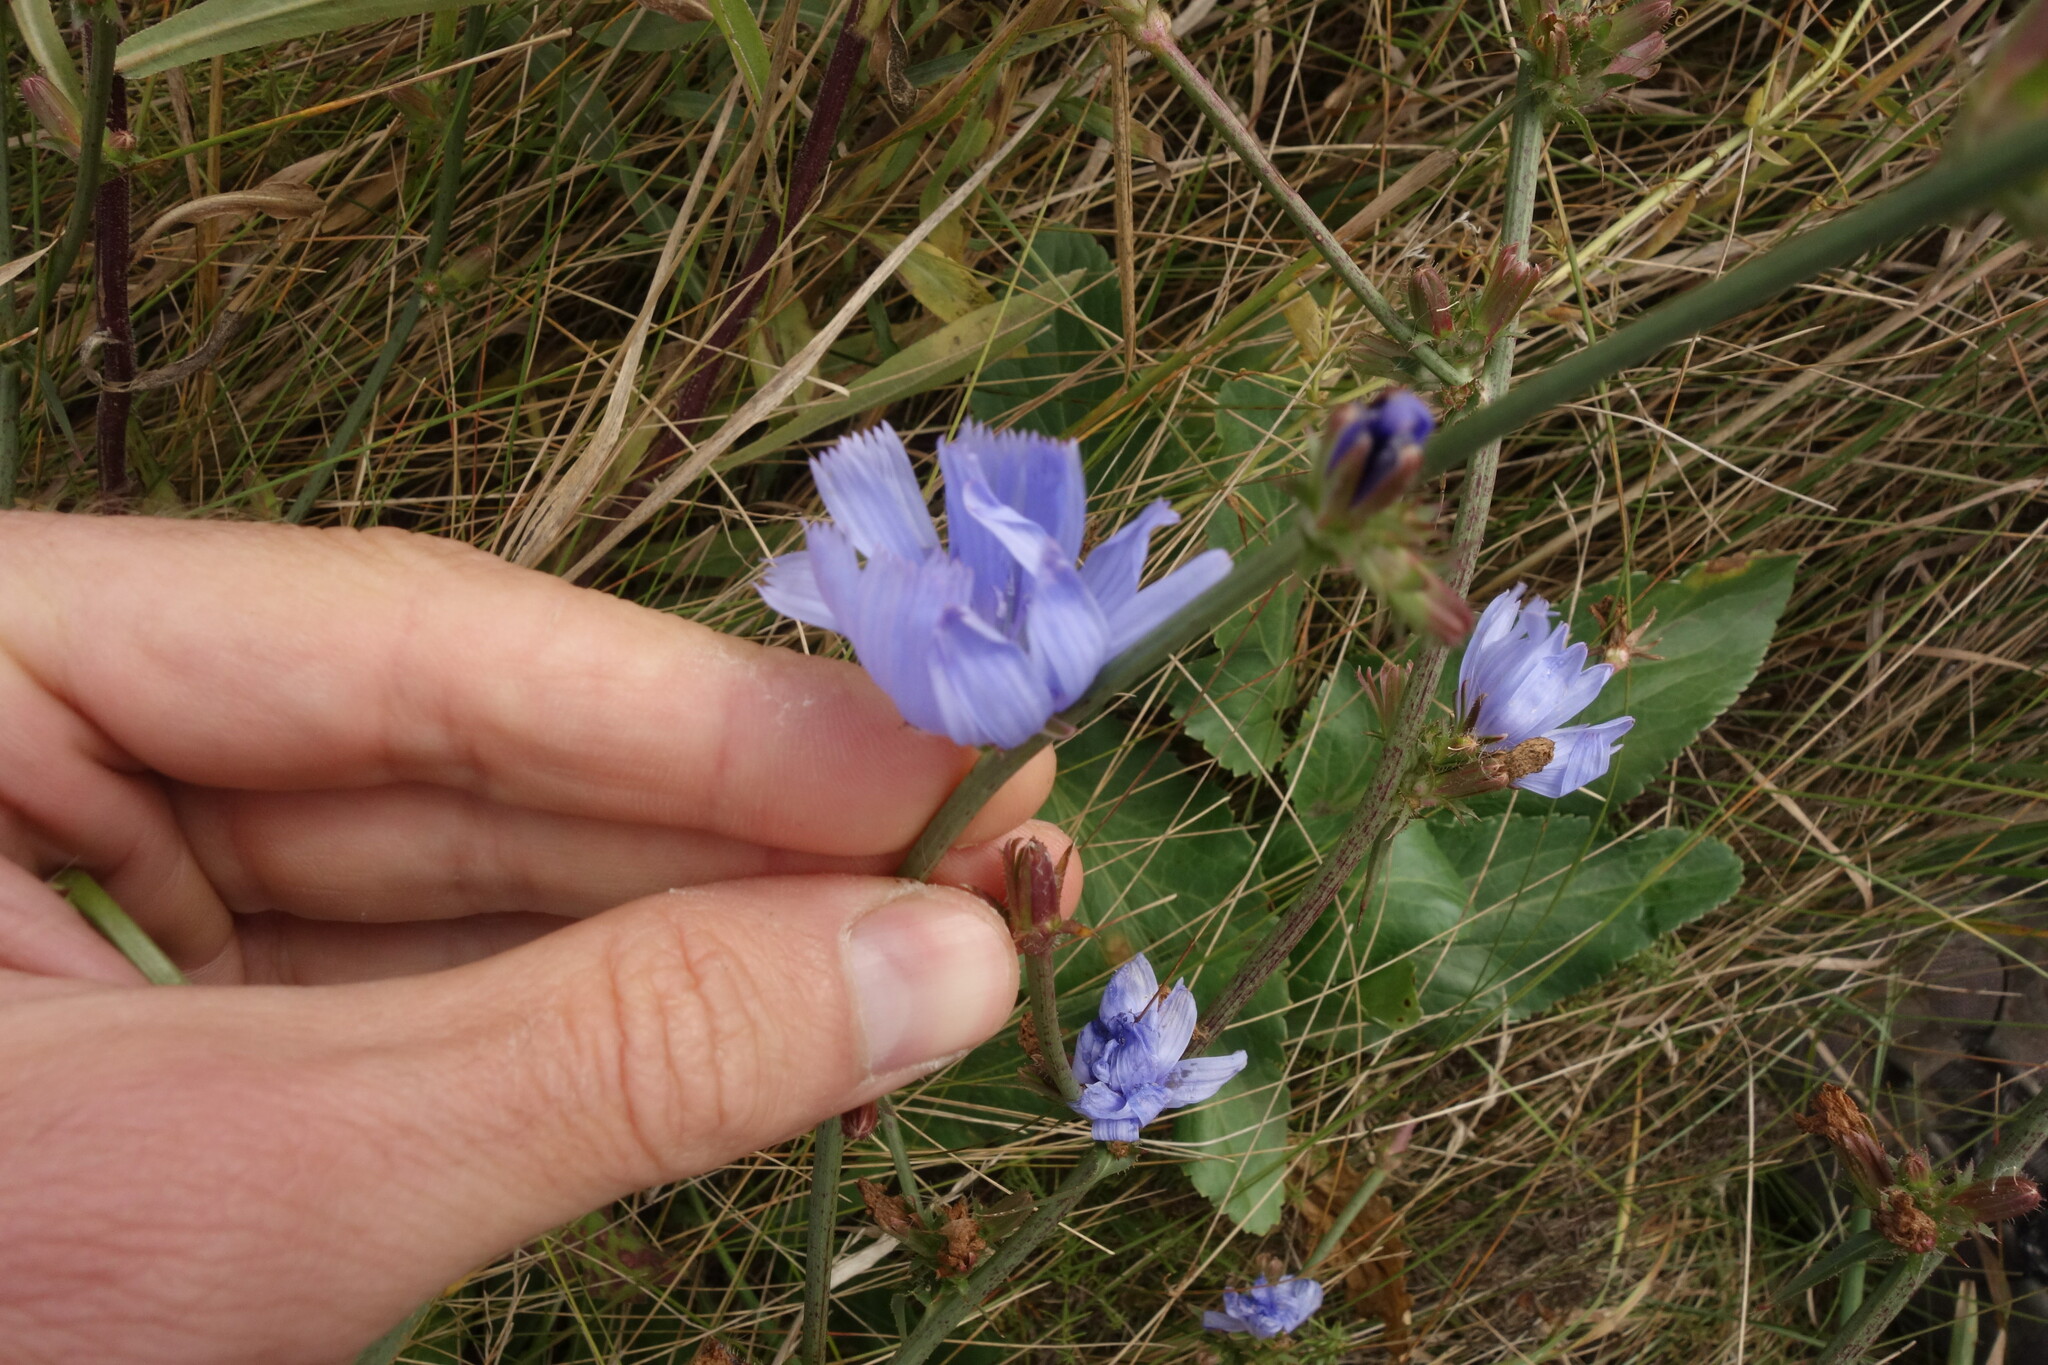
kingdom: Plantae
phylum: Tracheophyta
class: Magnoliopsida
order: Asterales
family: Asteraceae
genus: Cichorium
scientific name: Cichorium intybus
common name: Chicory
